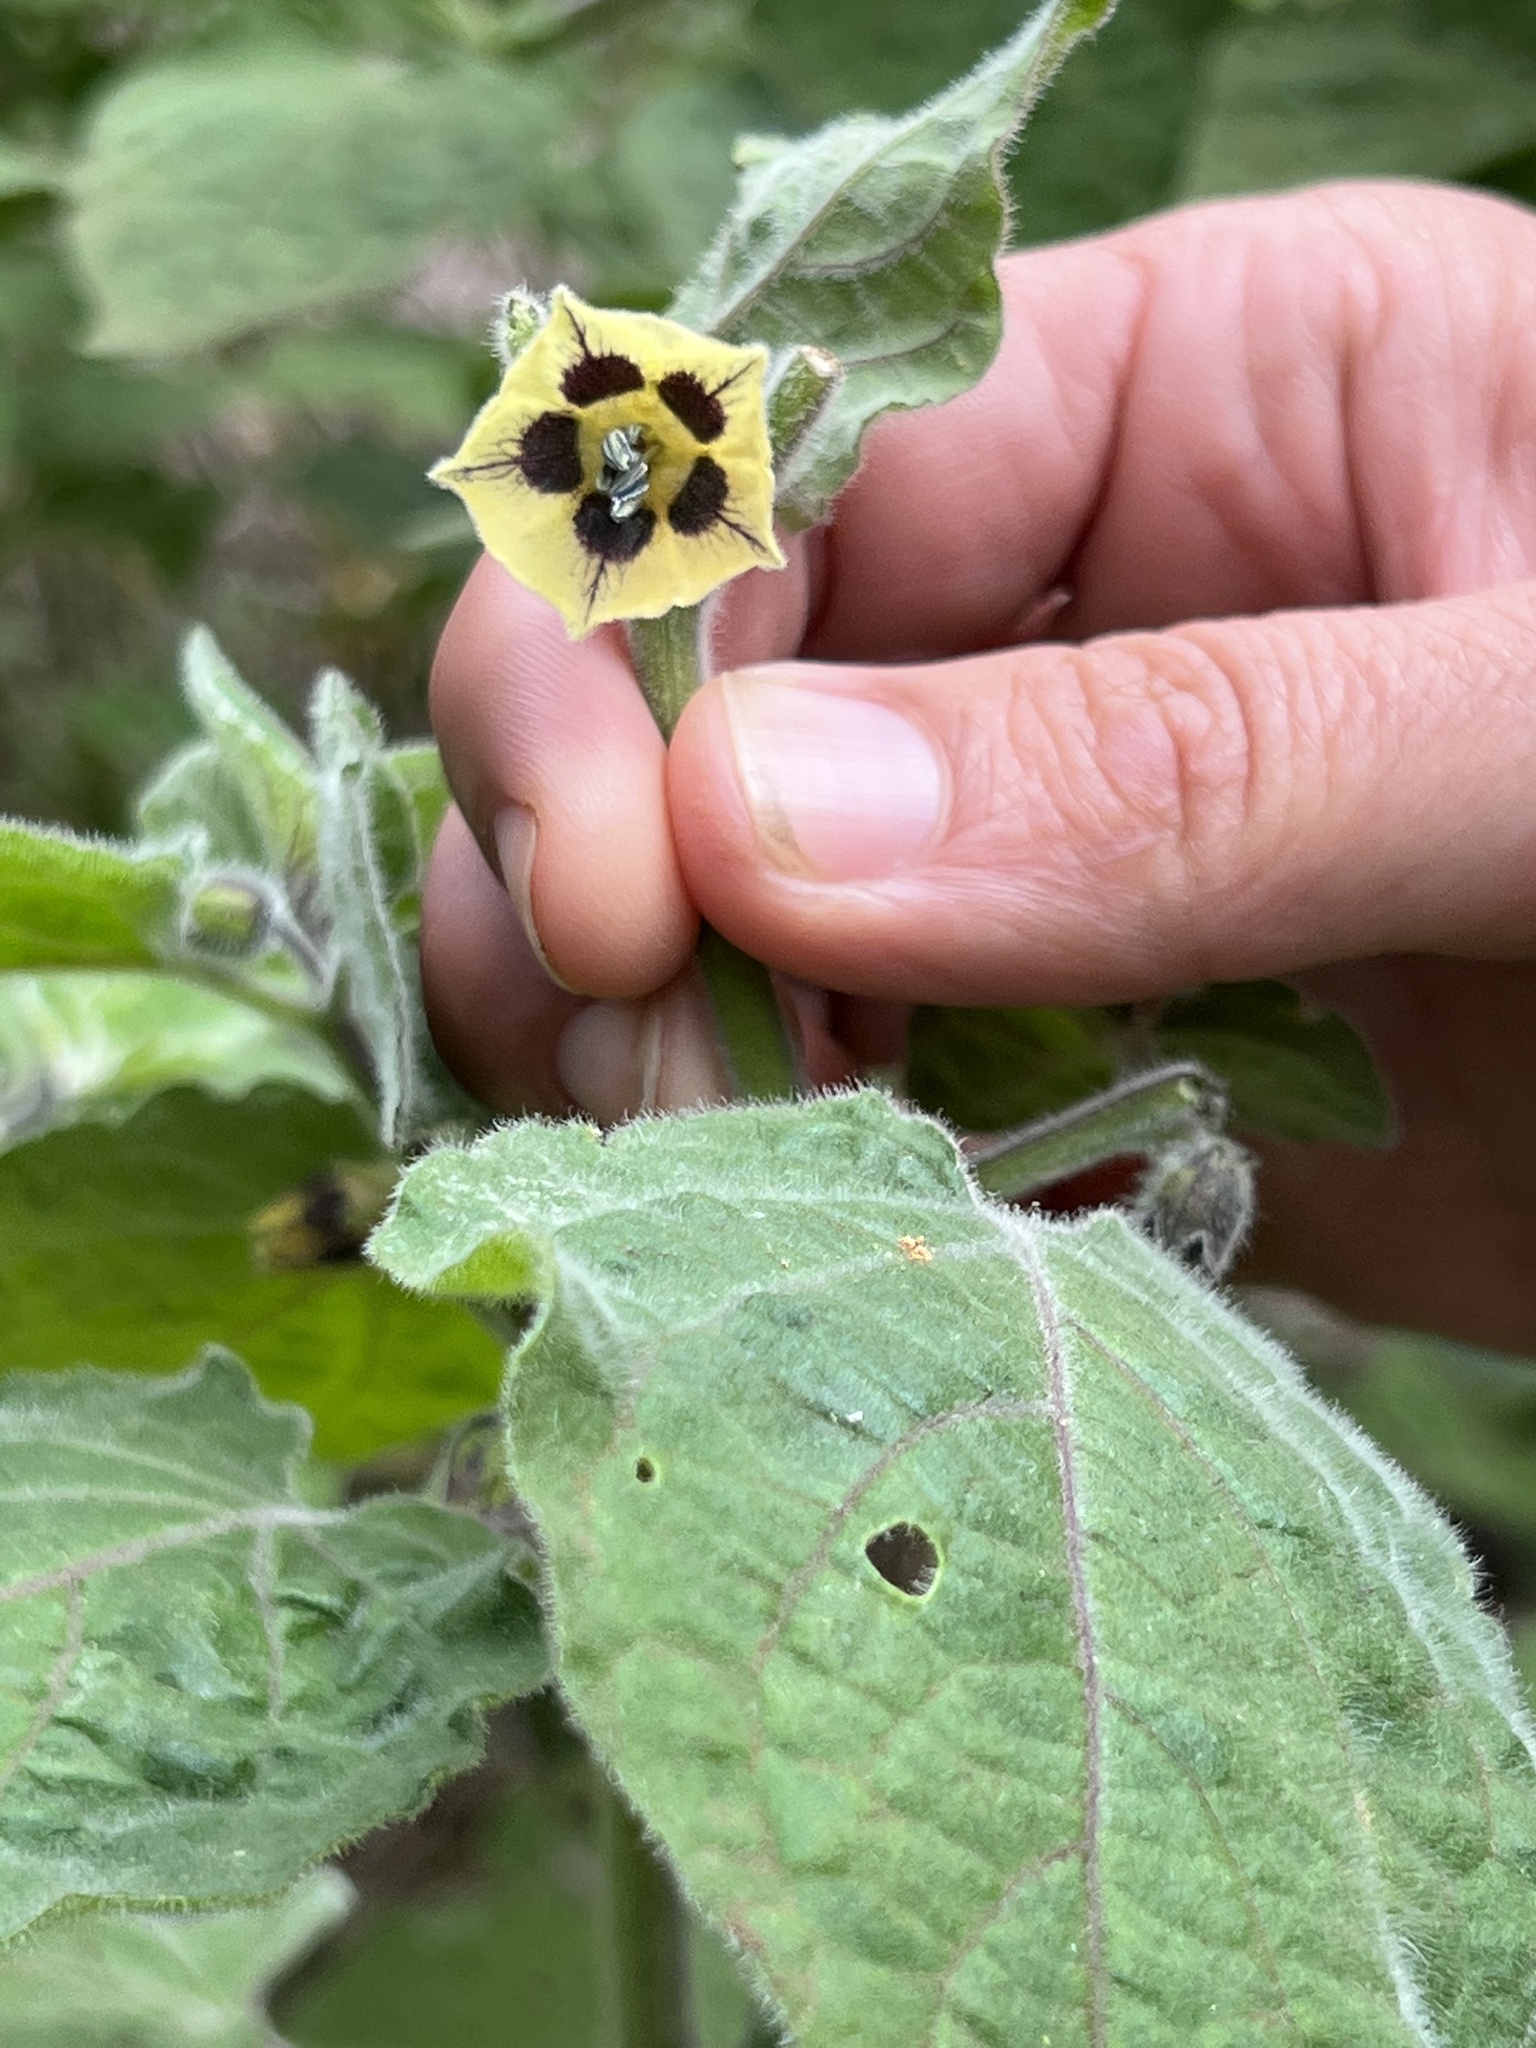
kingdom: Plantae
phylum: Tracheophyta
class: Magnoliopsida
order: Solanales
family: Solanaceae
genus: Physalis
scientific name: Physalis peruviana
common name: Cape-gooseberry
